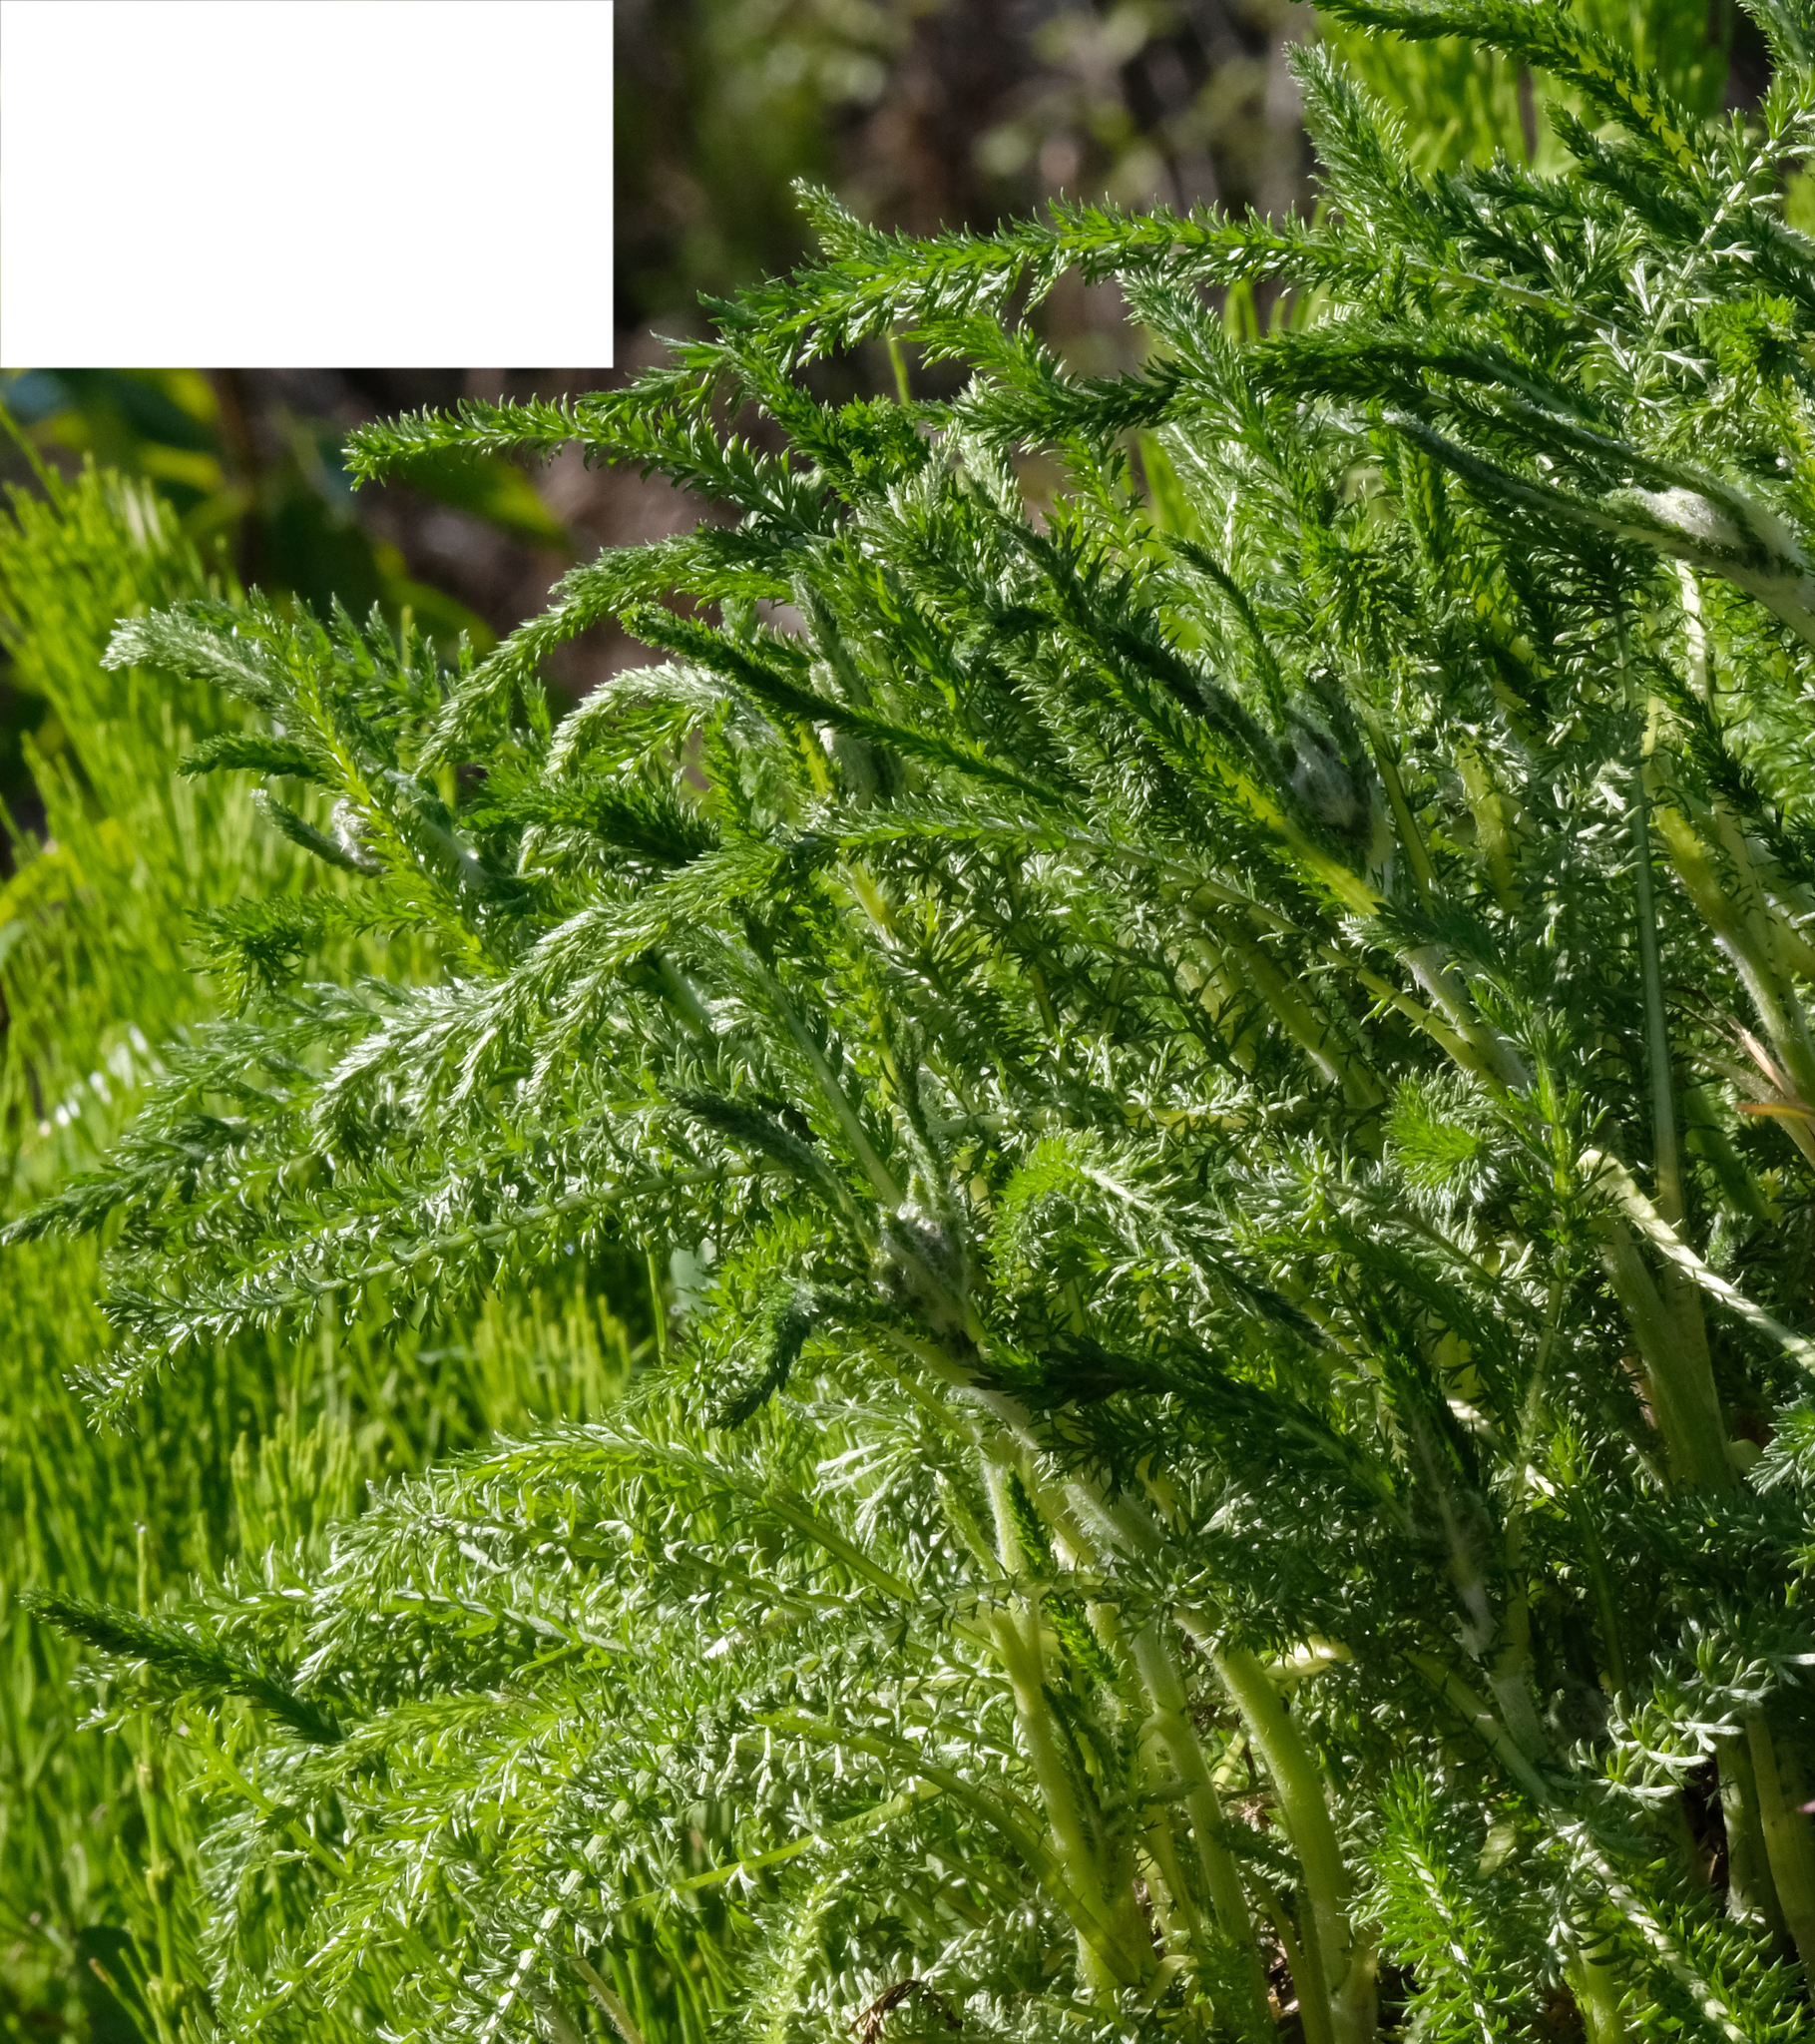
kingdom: Plantae
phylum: Tracheophyta
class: Magnoliopsida
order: Asterales
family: Asteraceae
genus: Achillea
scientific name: Achillea millefolium
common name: Yarrow
